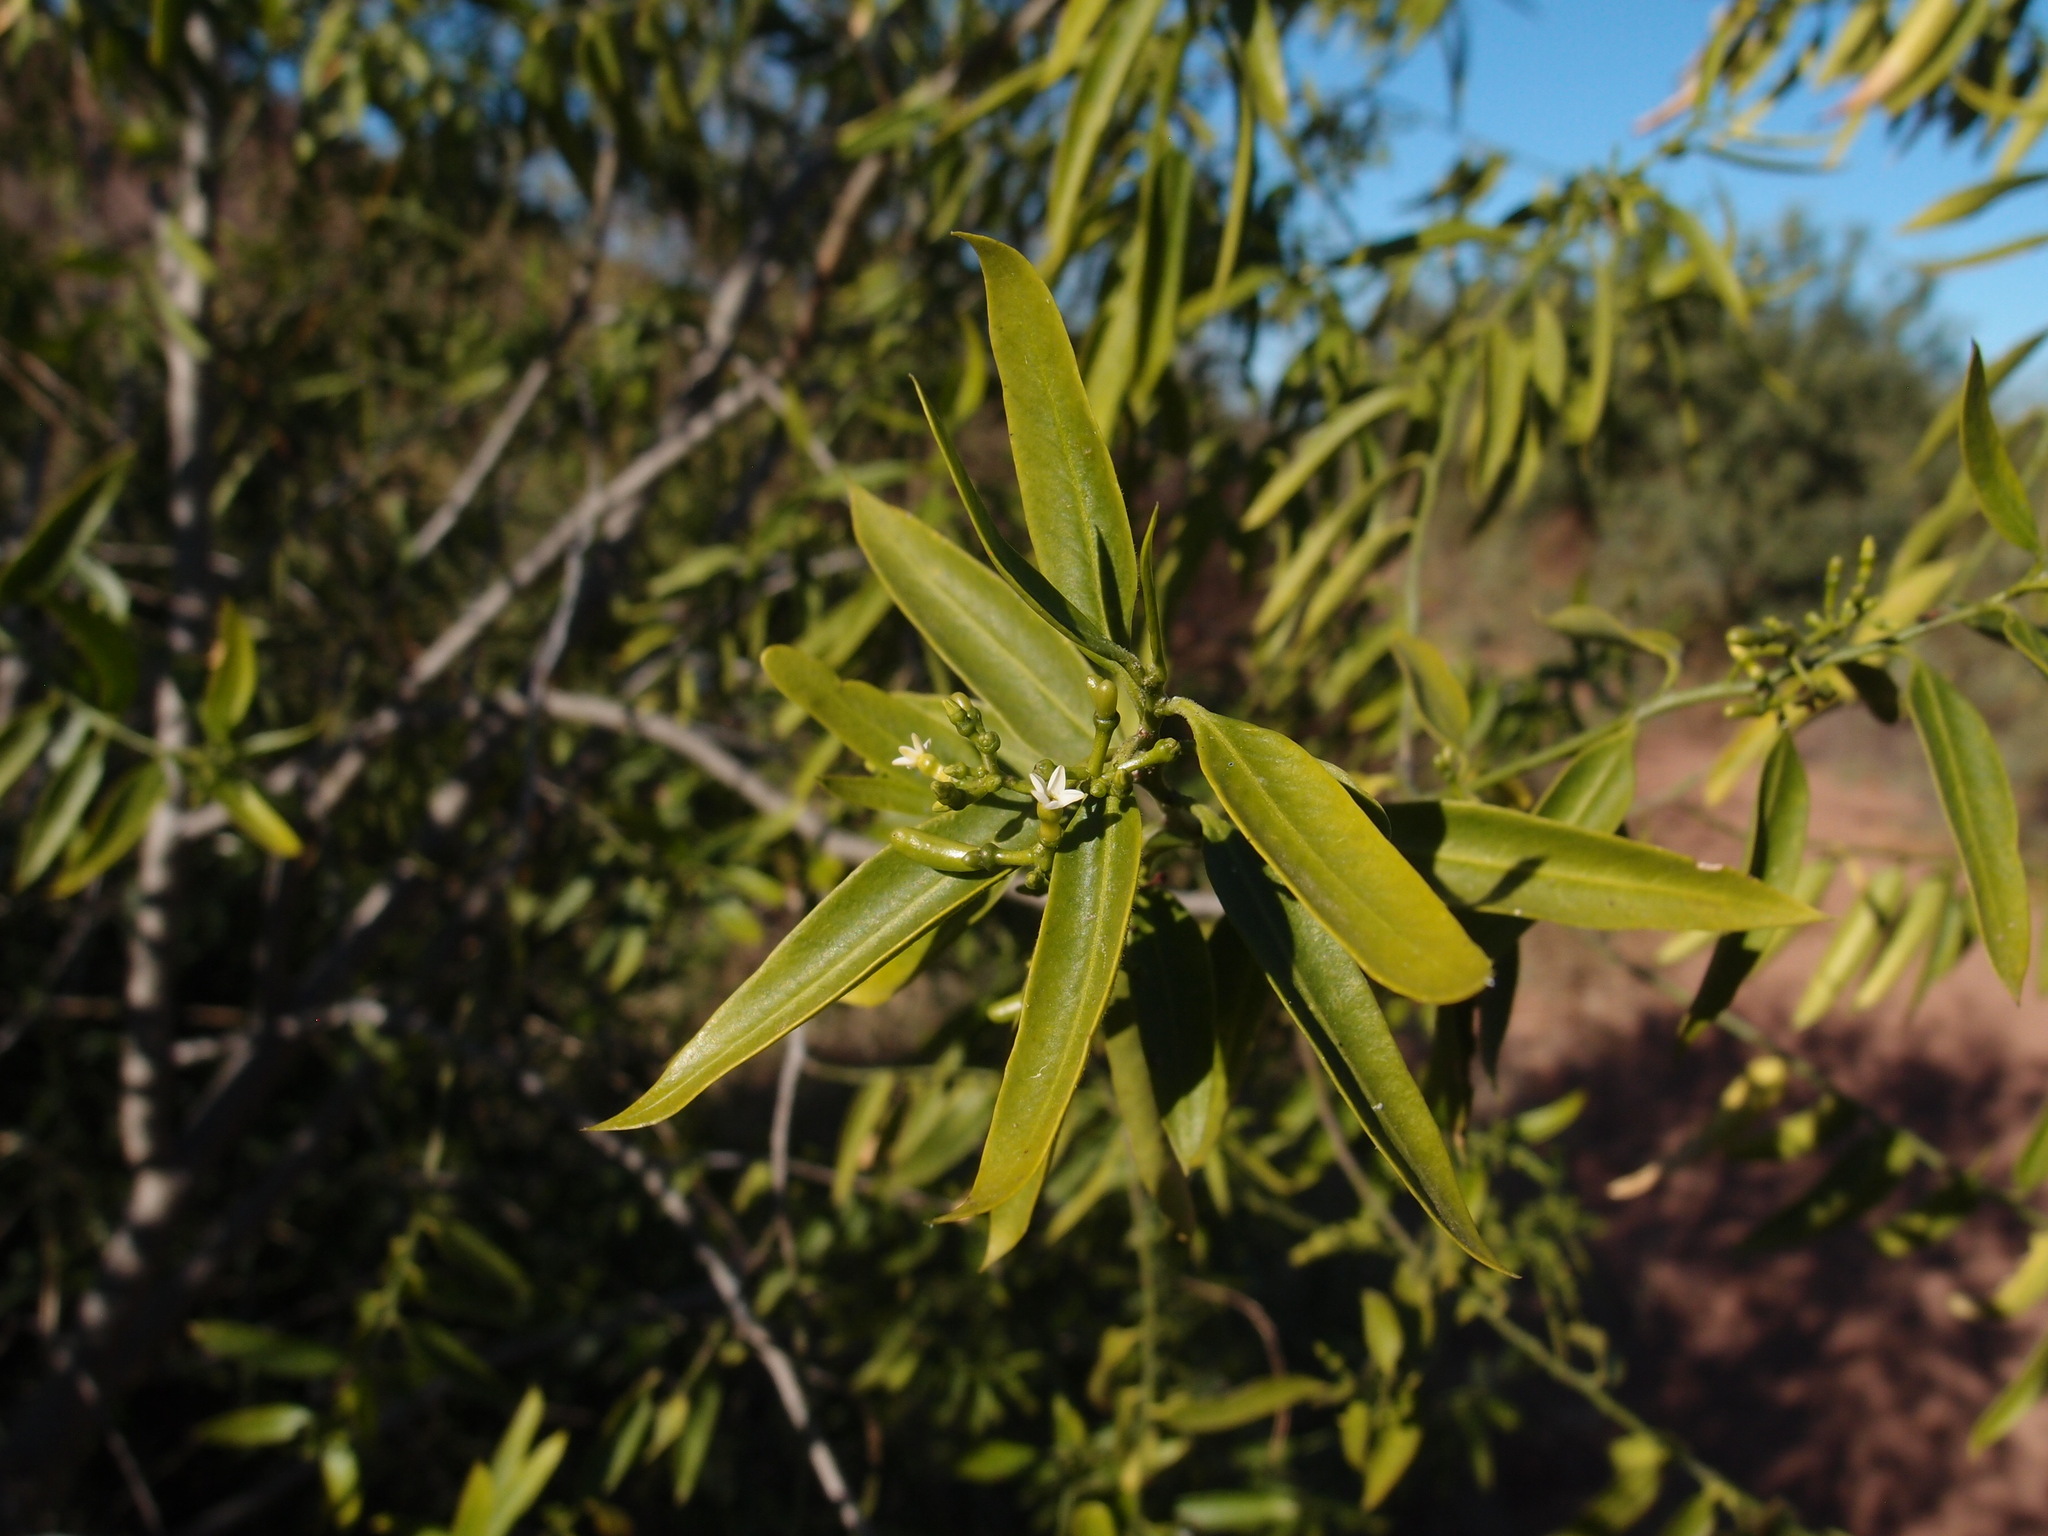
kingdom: Plantae
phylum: Tracheophyta
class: Magnoliopsida
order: Gentianales
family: Apocynaceae
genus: Vallesia
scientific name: Vallesia glabra
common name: Pearlberry
